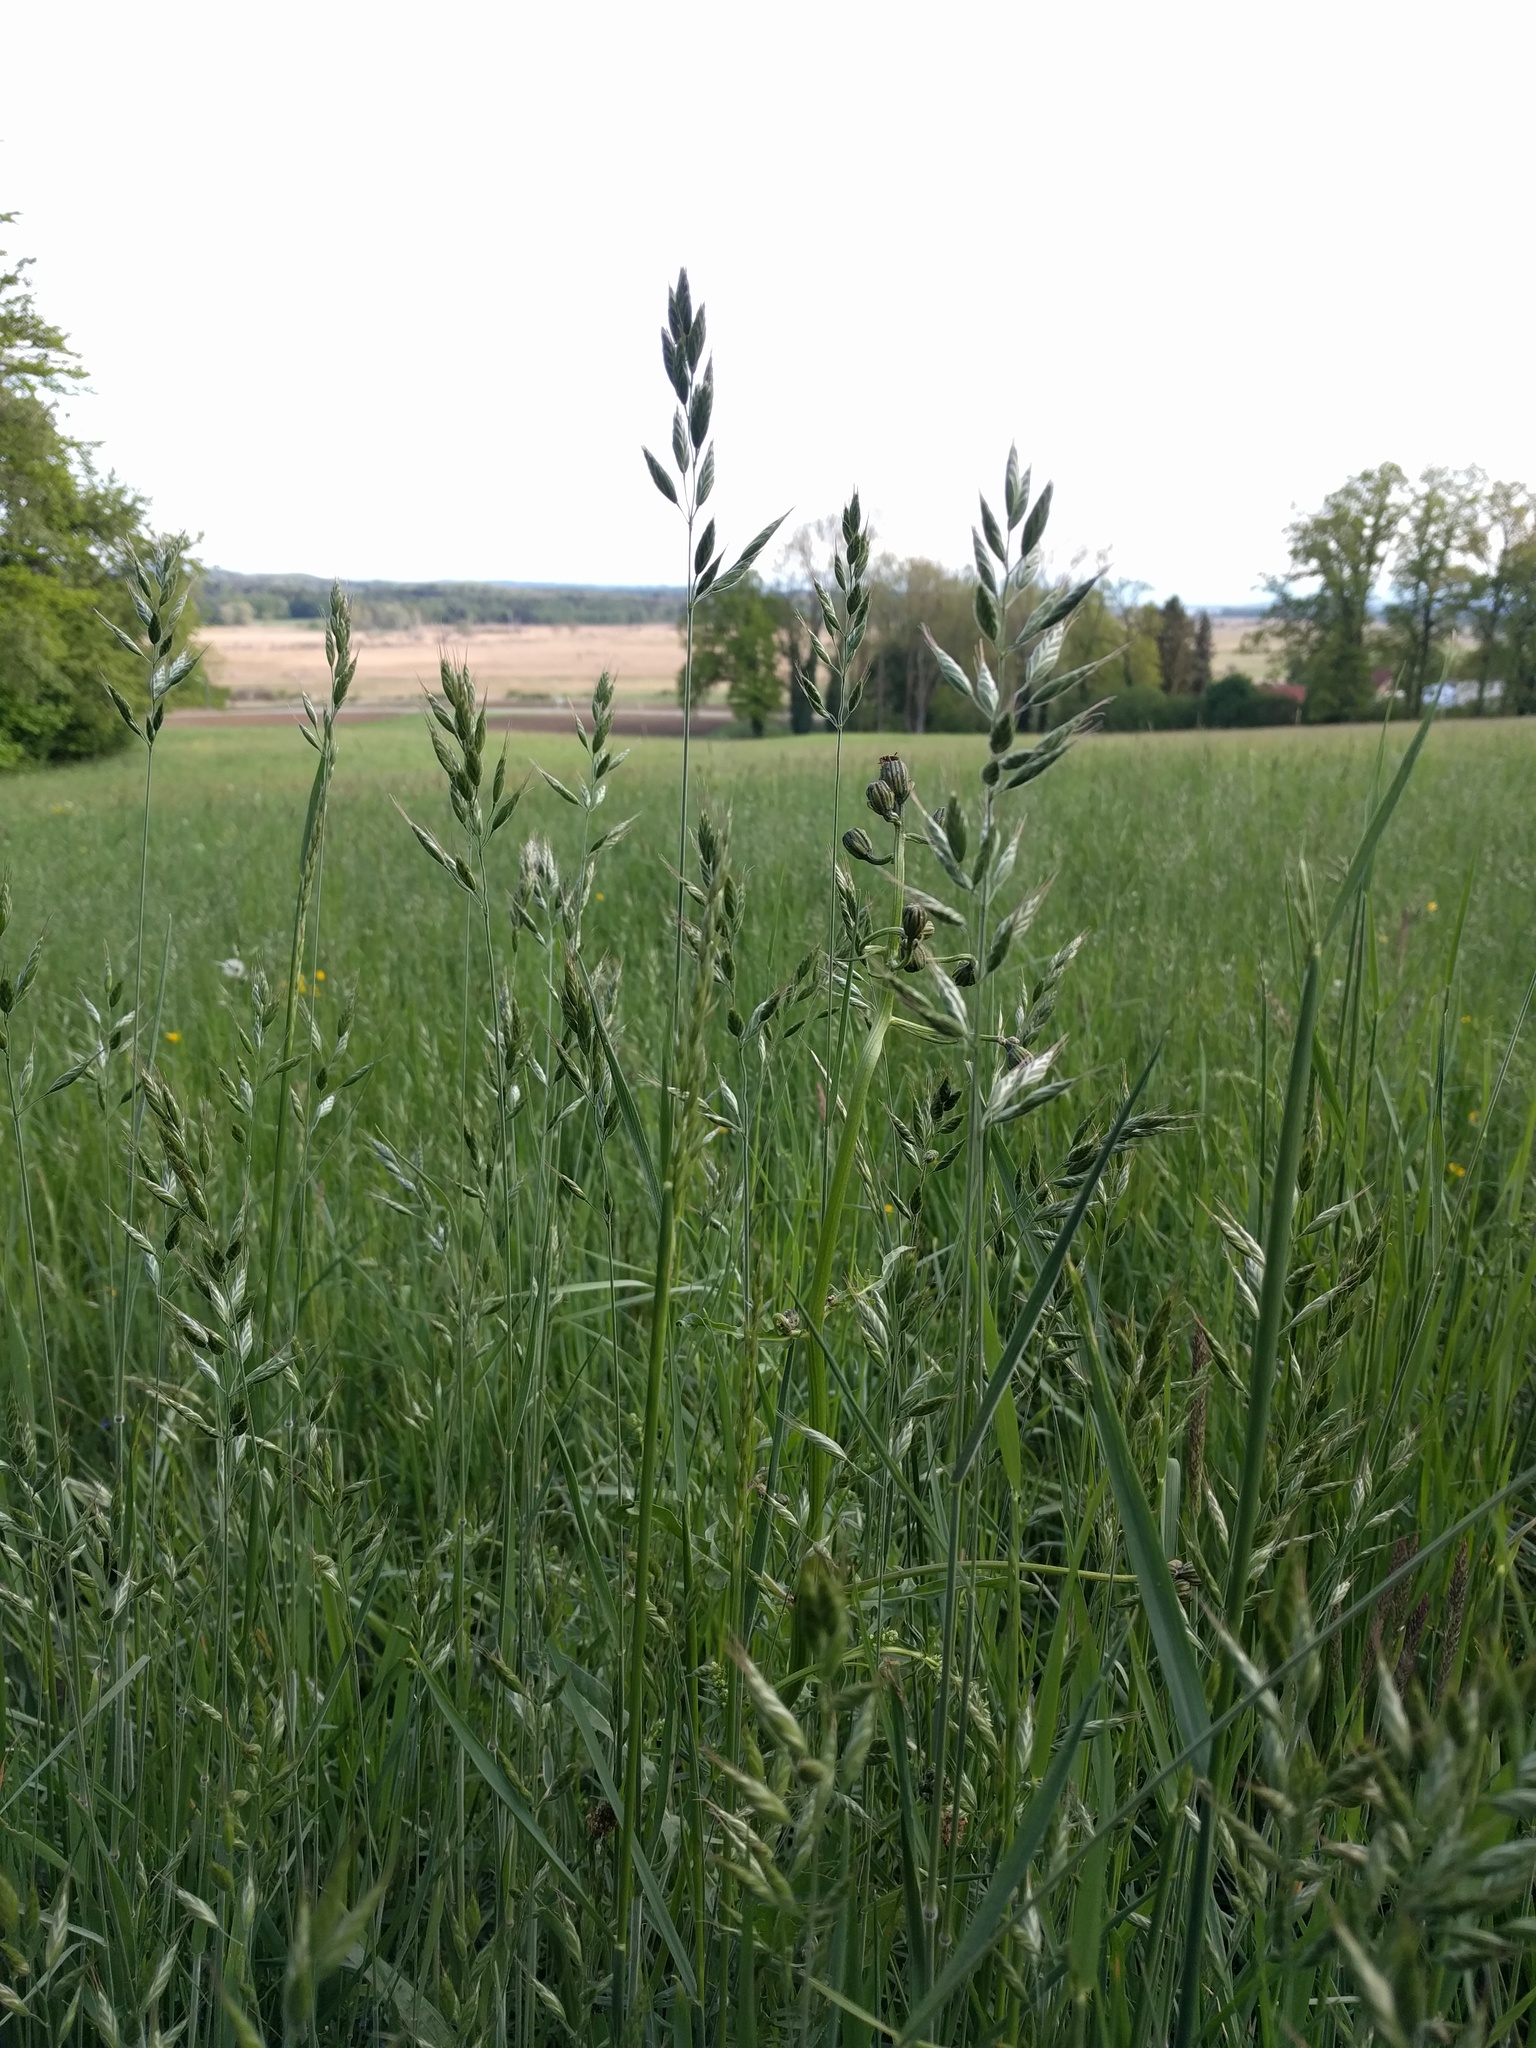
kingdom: Plantae
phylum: Tracheophyta
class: Liliopsida
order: Poales
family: Poaceae
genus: Bromus
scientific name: Bromus hordeaceus
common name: Soft brome
